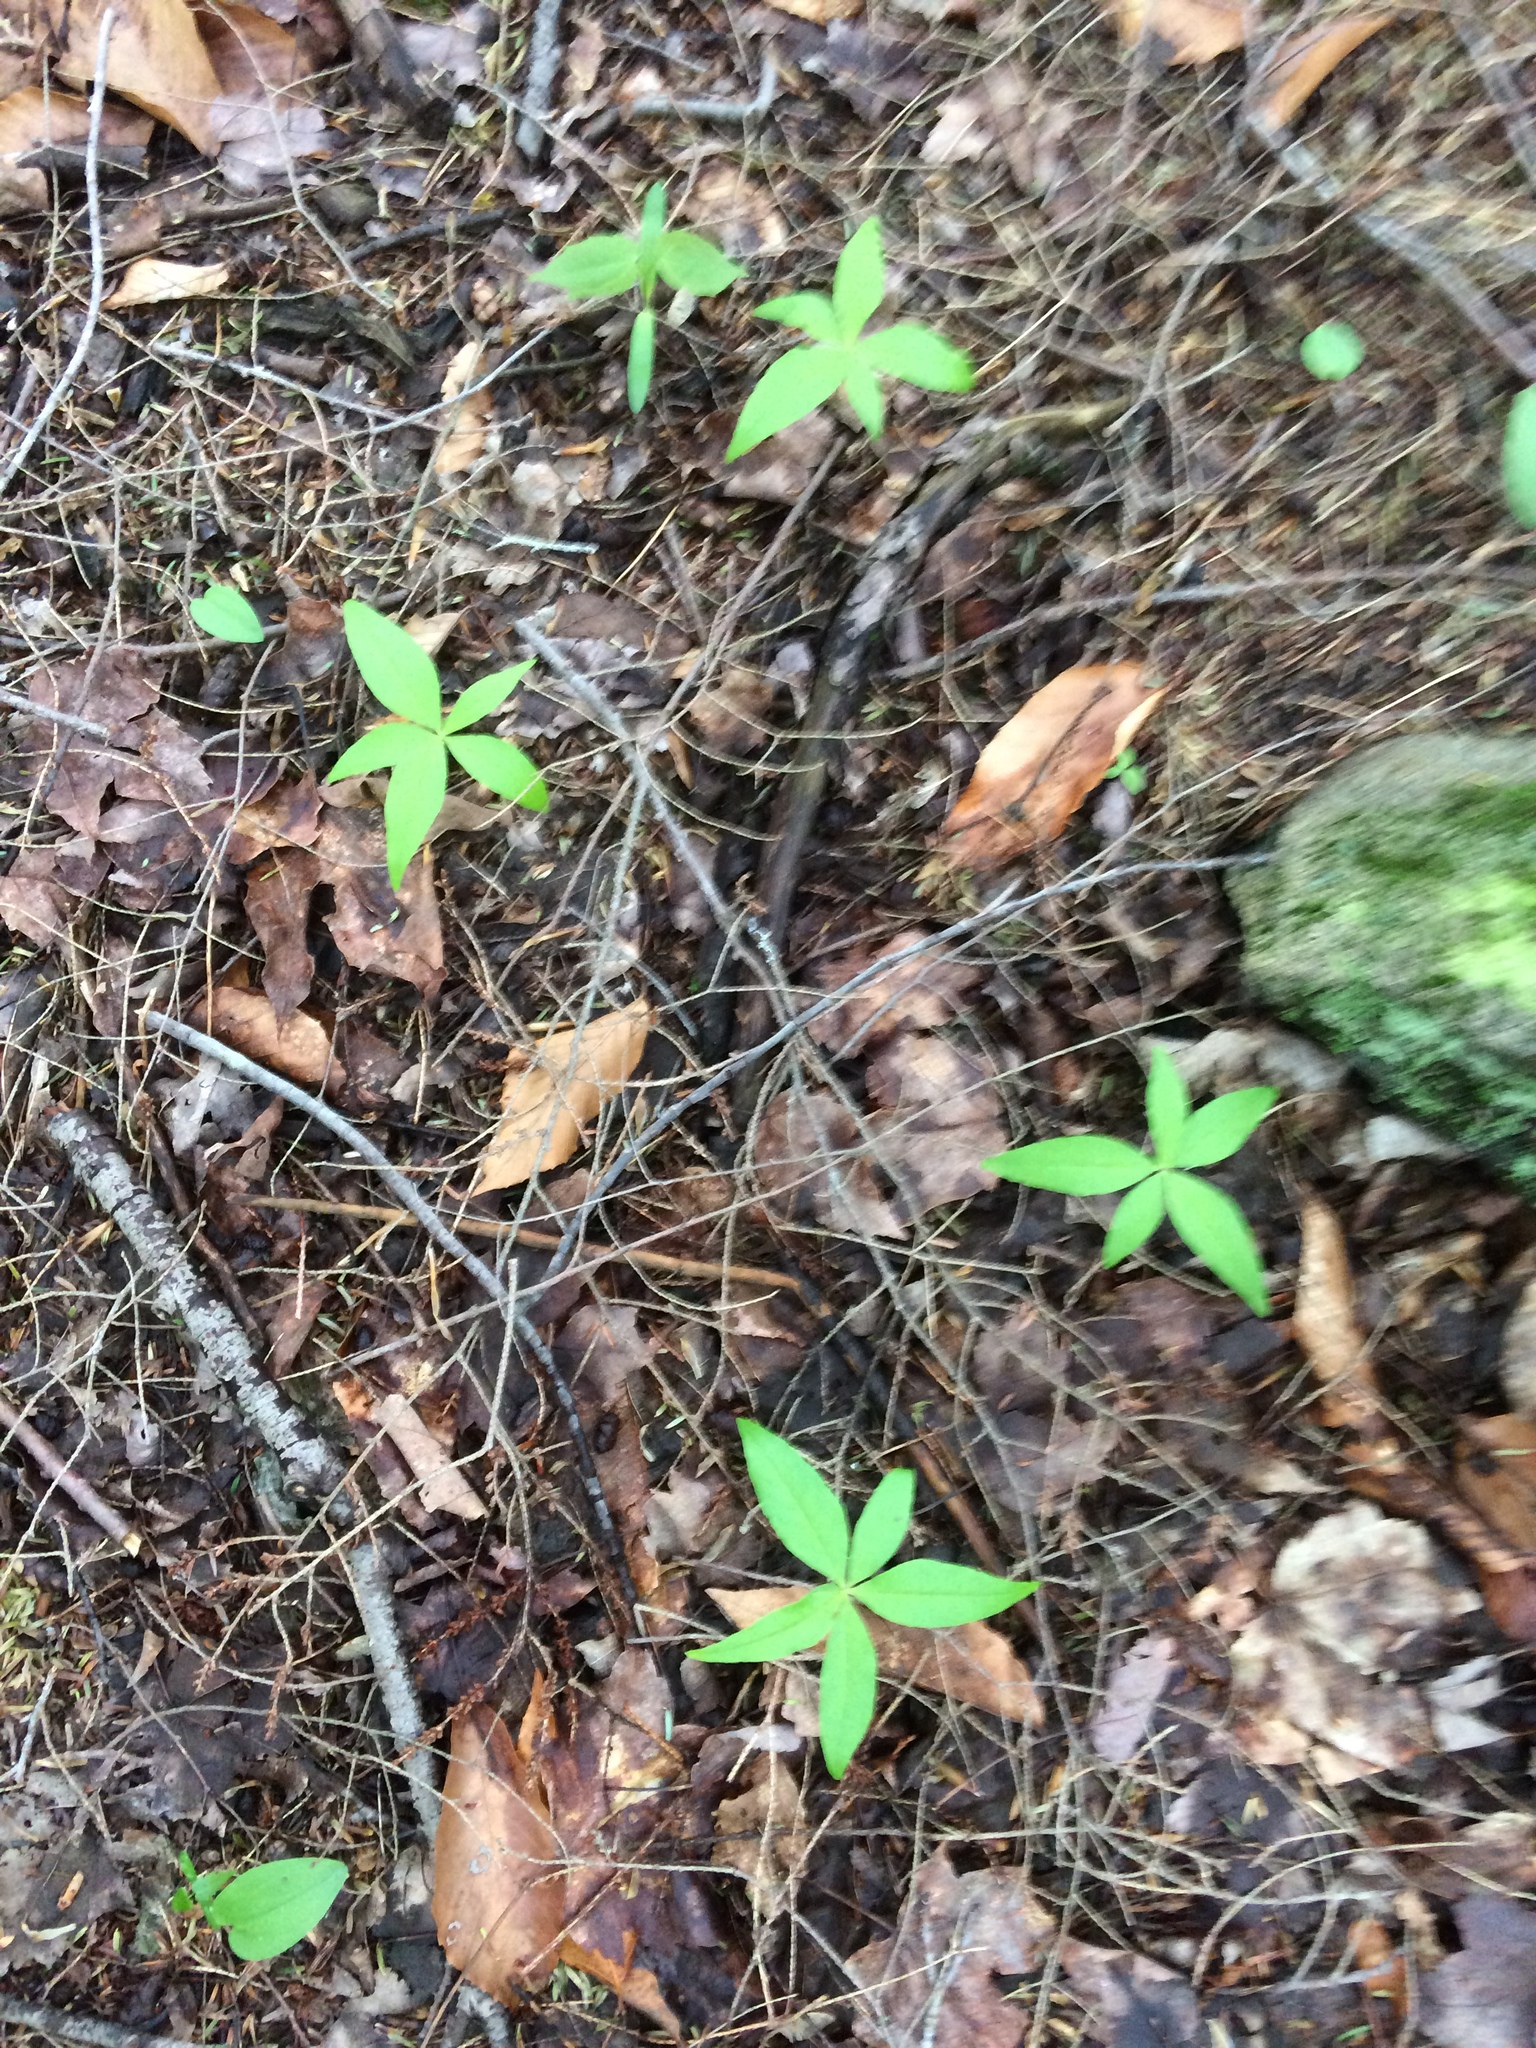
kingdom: Plantae
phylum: Tracheophyta
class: Magnoliopsida
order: Ericales
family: Primulaceae
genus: Lysimachia
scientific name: Lysimachia borealis
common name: American starflower
